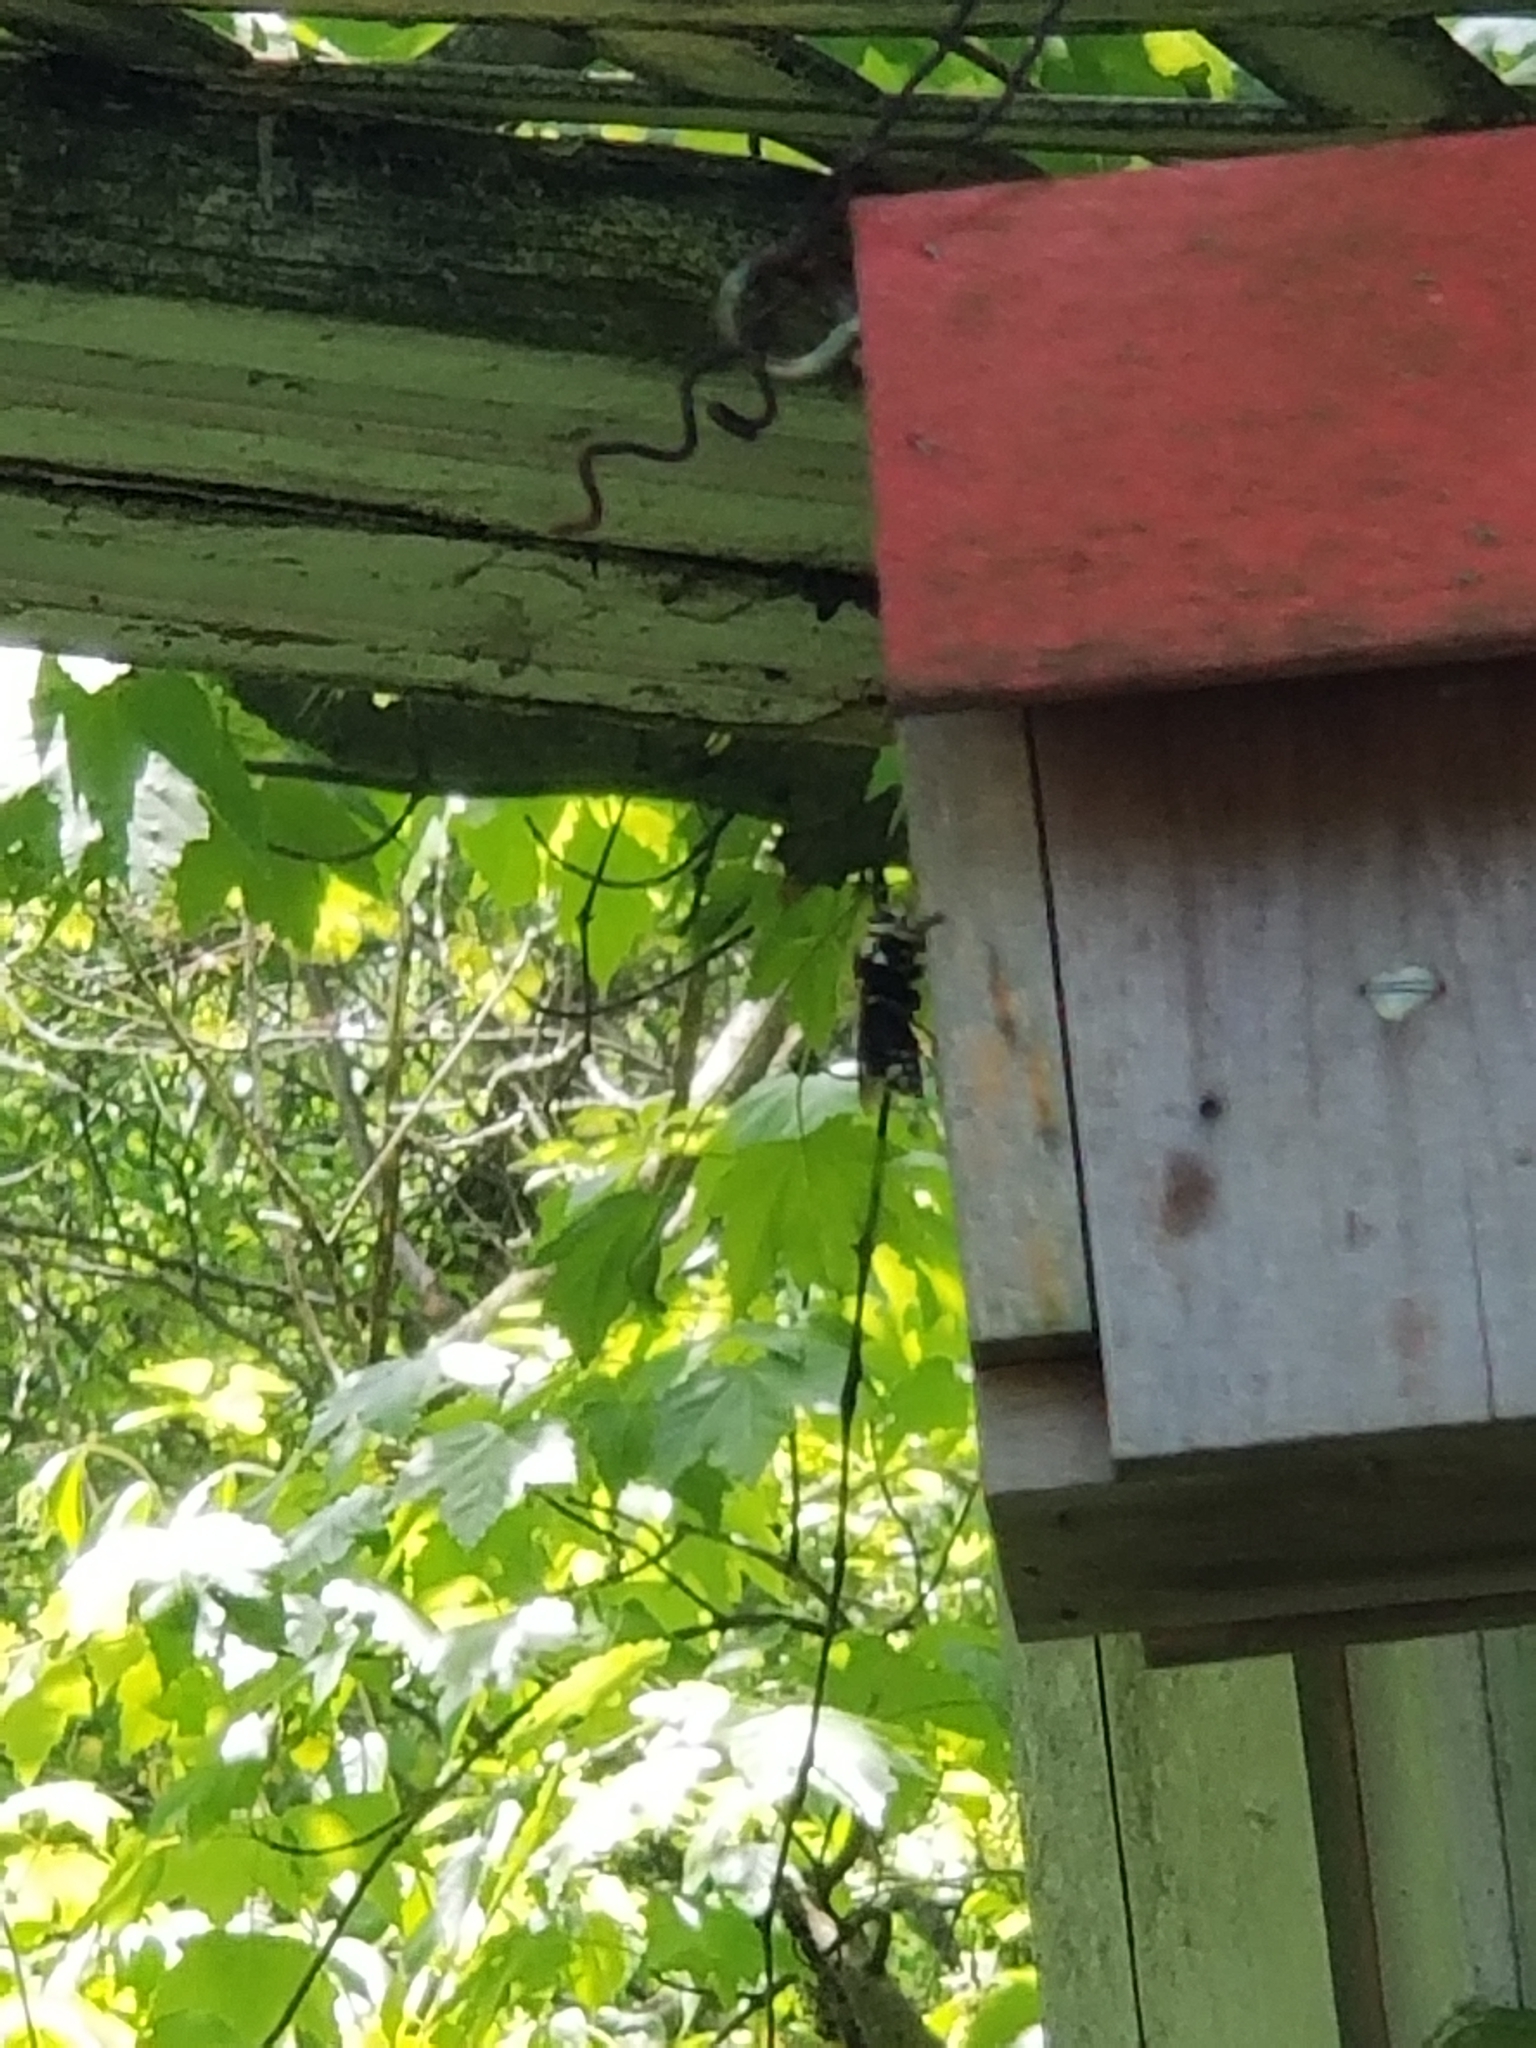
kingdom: Animalia
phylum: Arthropoda
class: Insecta
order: Hymenoptera
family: Vespidae
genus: Dolichovespula
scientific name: Dolichovespula maculata
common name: Bald-faced hornet
